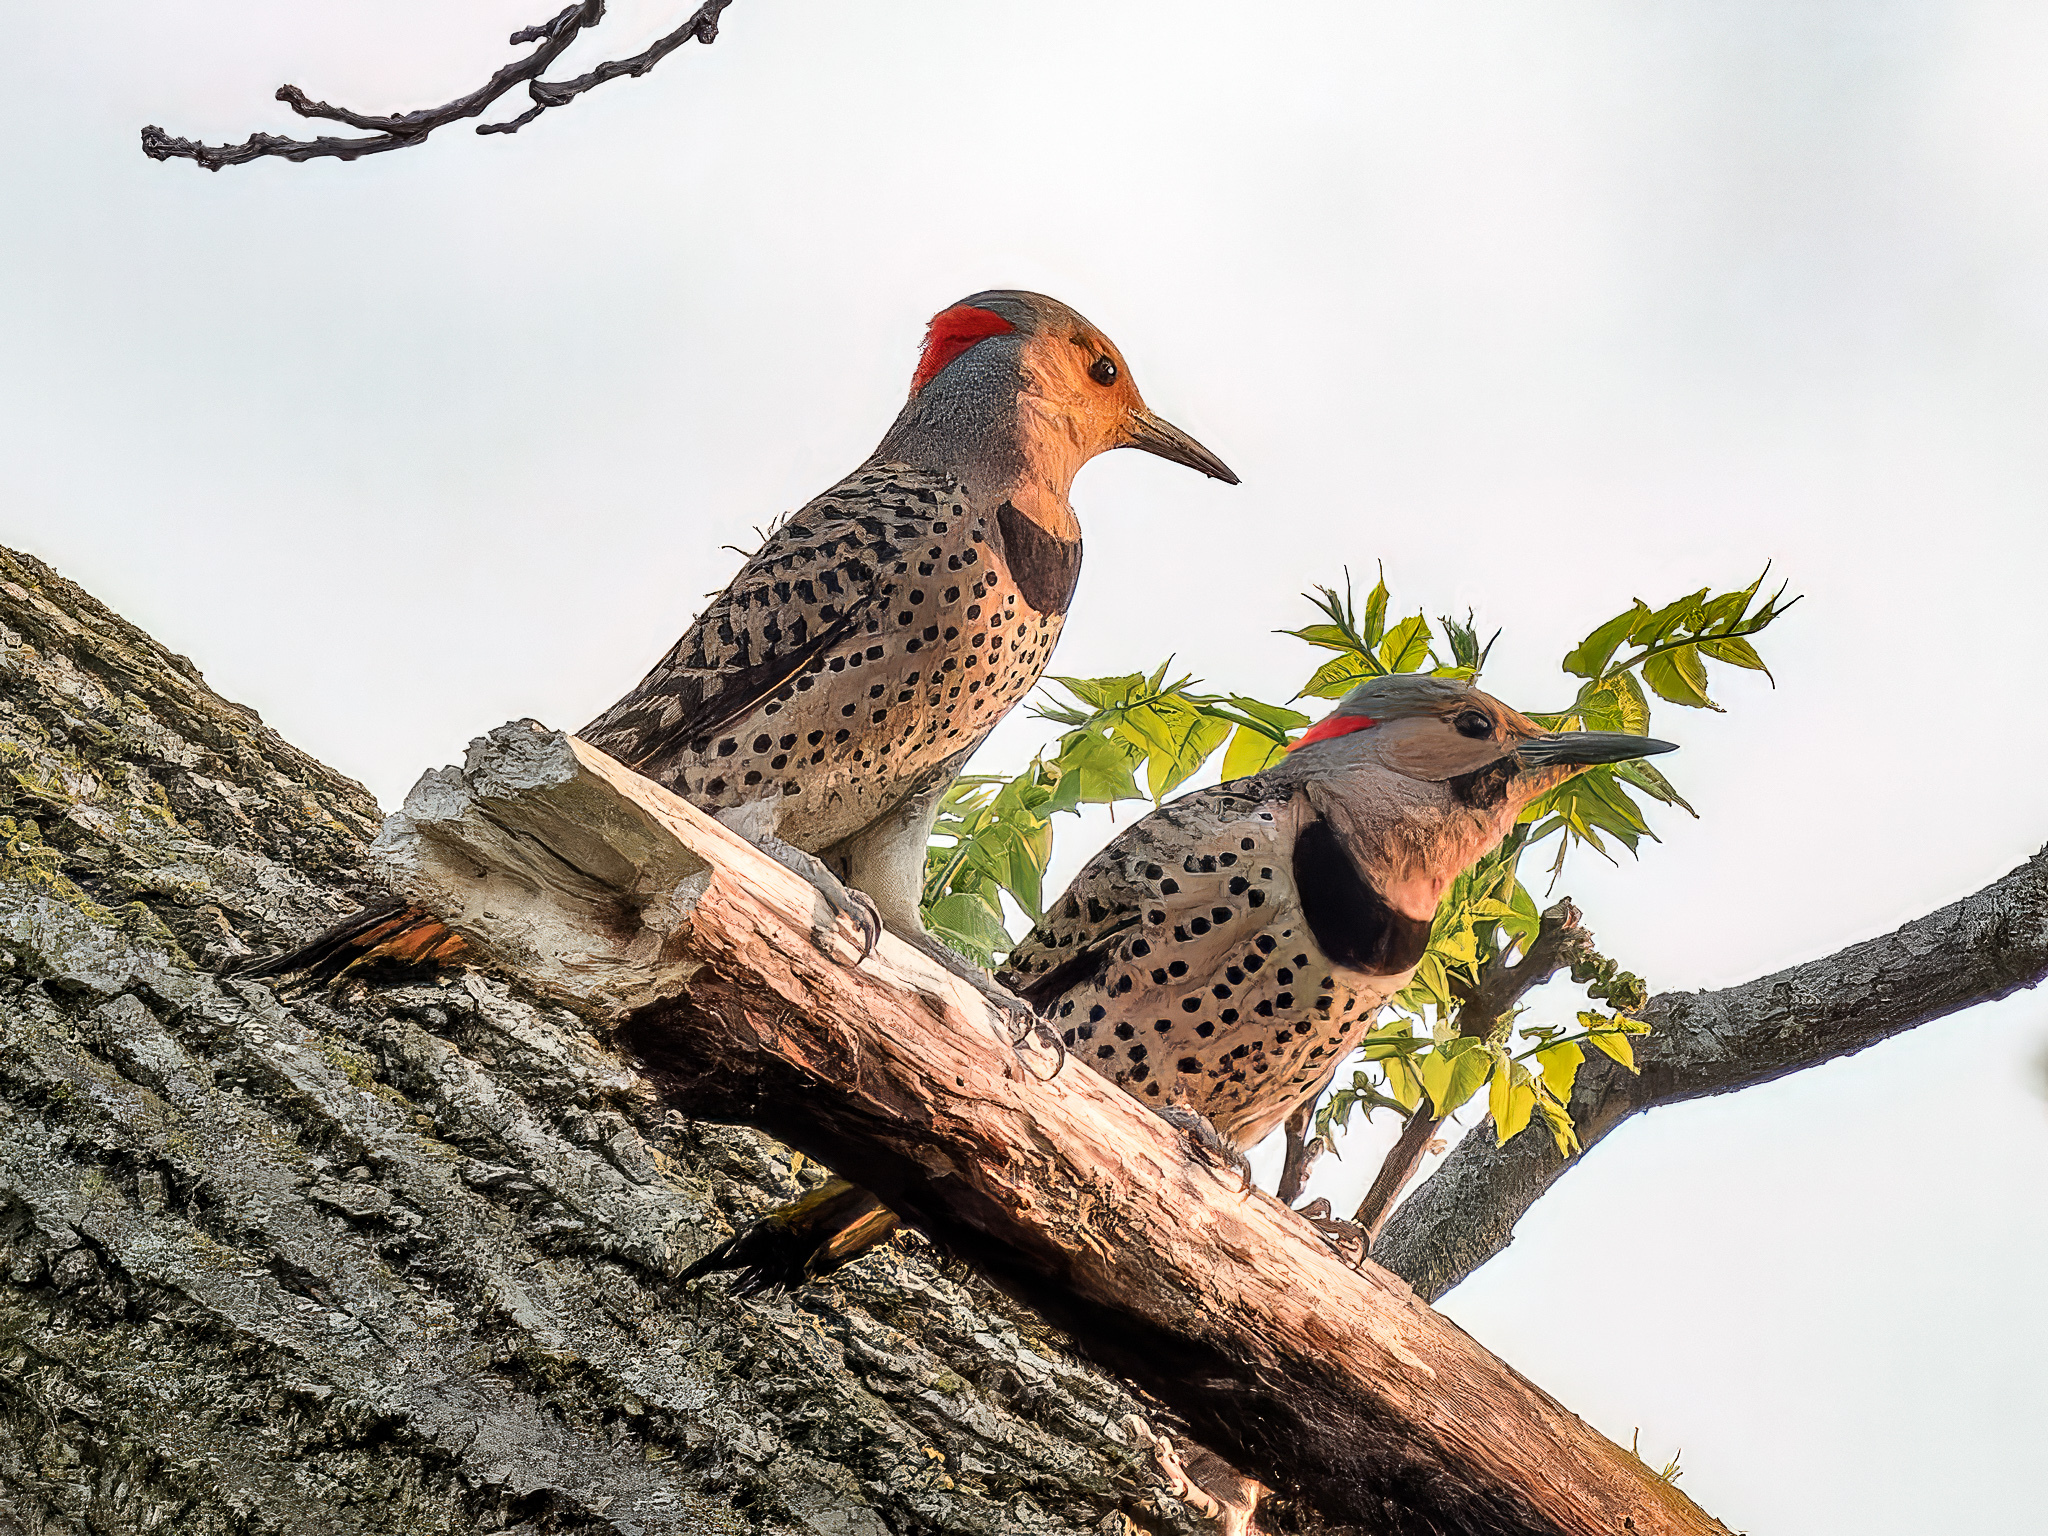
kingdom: Animalia
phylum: Chordata
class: Aves
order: Piciformes
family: Picidae
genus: Colaptes
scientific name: Colaptes auratus
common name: Northern flicker
